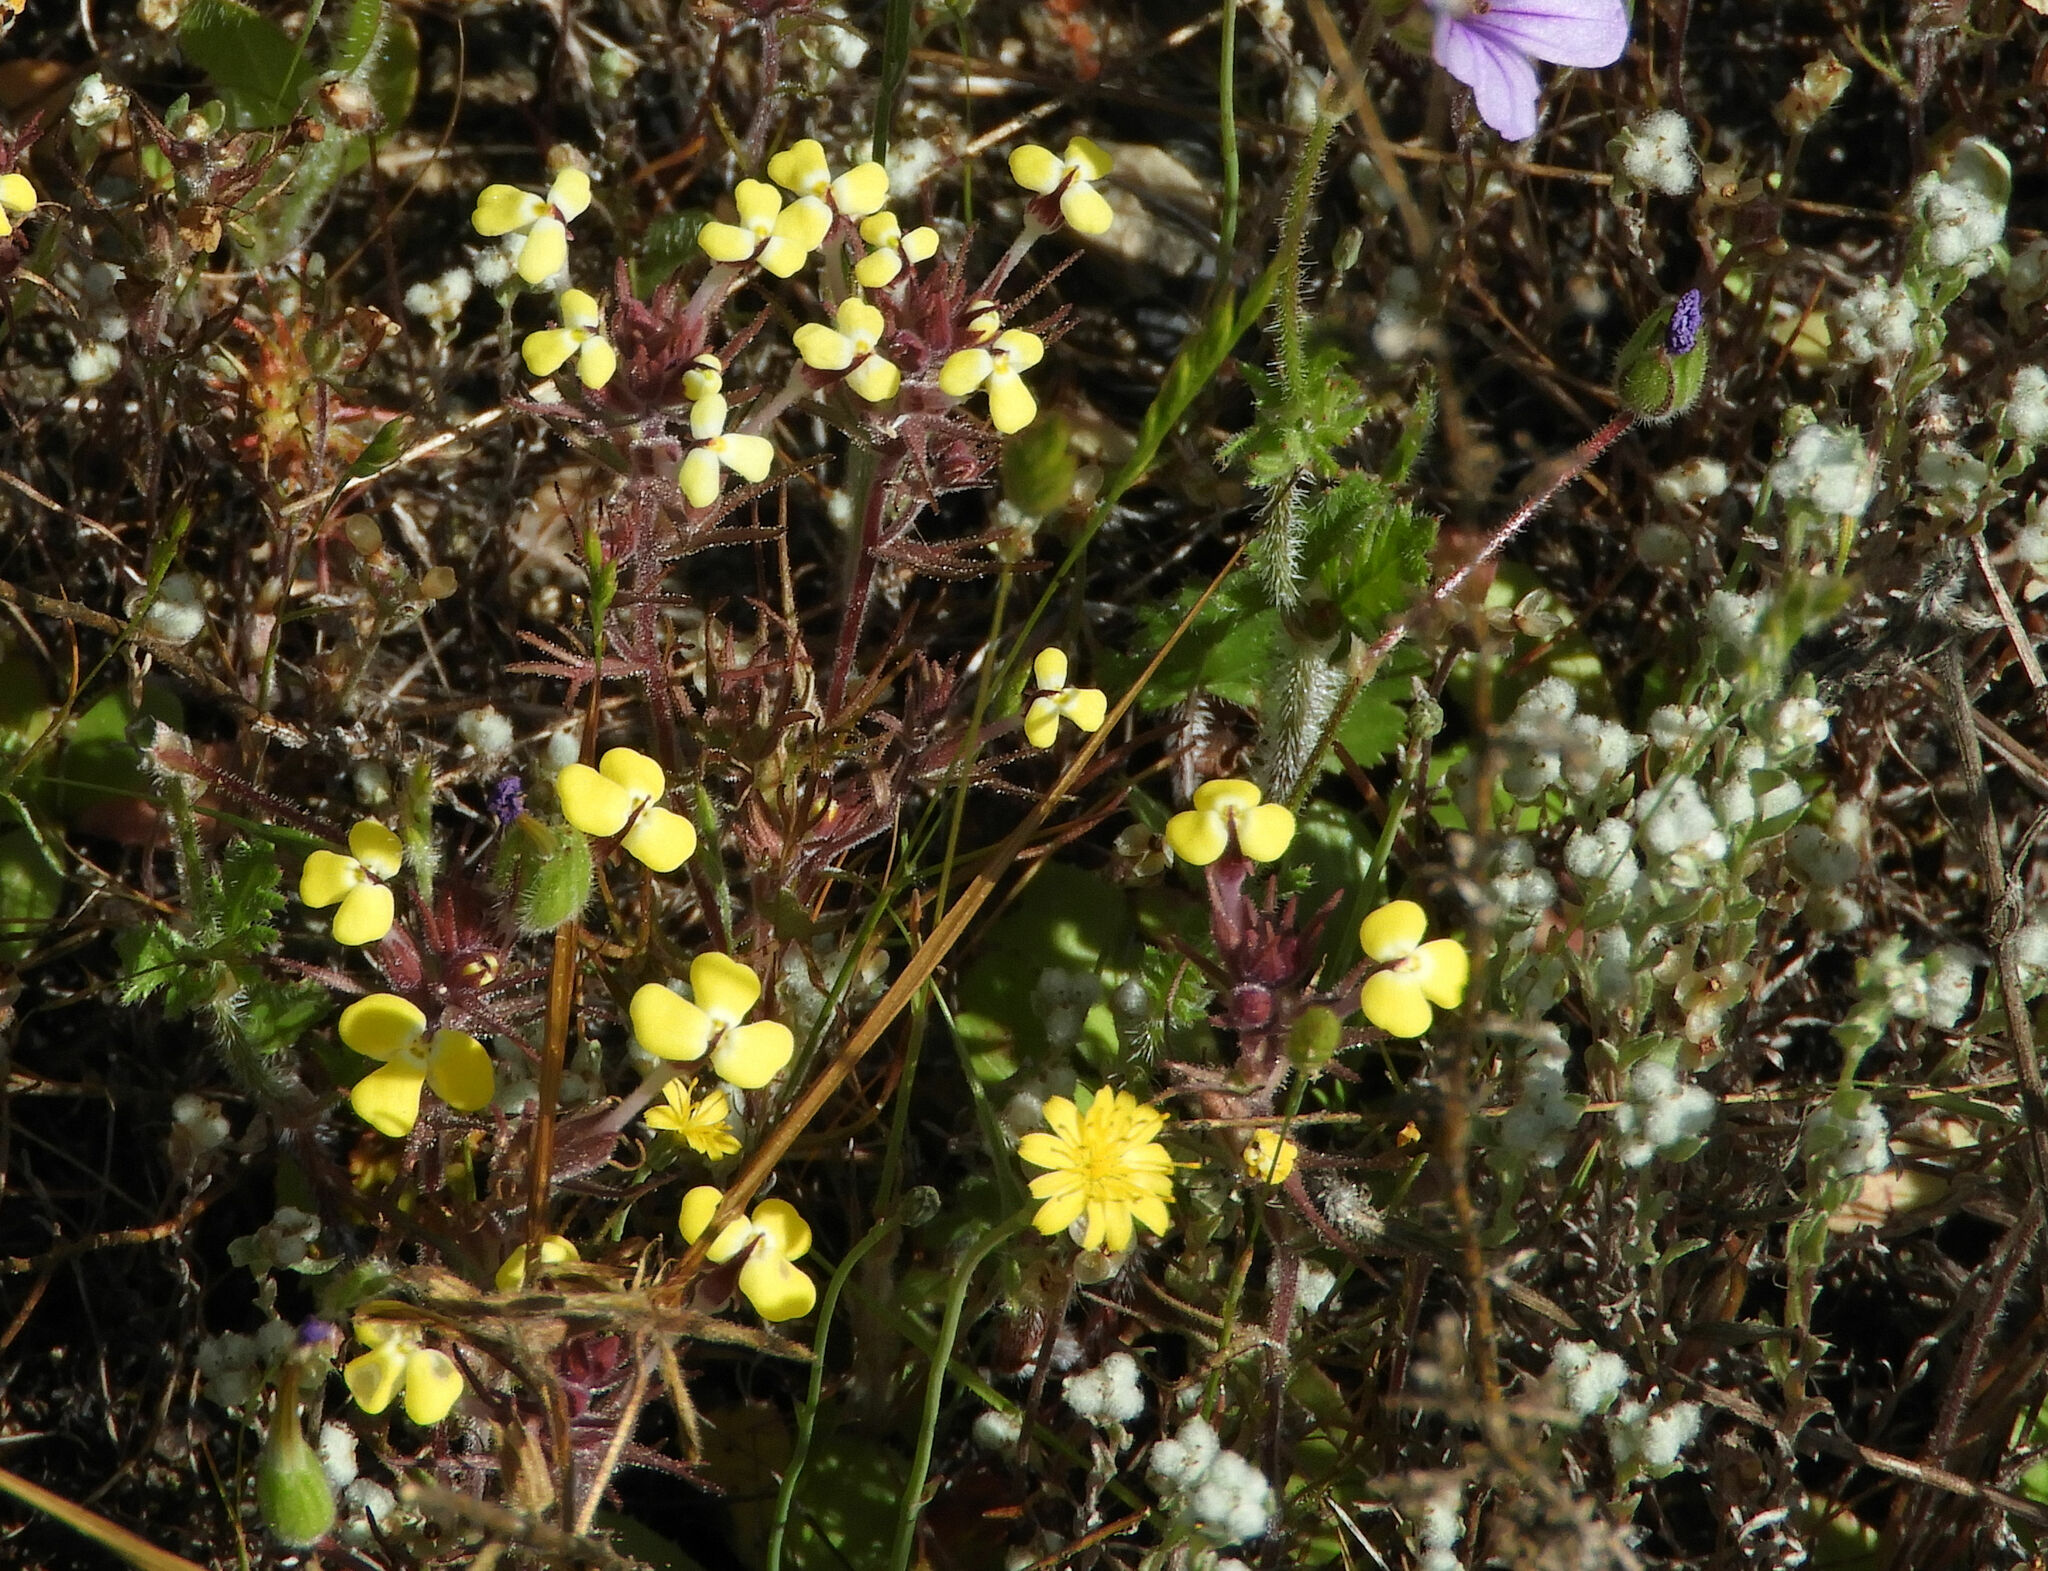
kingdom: Plantae
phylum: Tracheophyta
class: Magnoliopsida
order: Lamiales
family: Orobanchaceae
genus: Triphysaria
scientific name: Triphysaria eriantha
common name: Johnny-tuck
